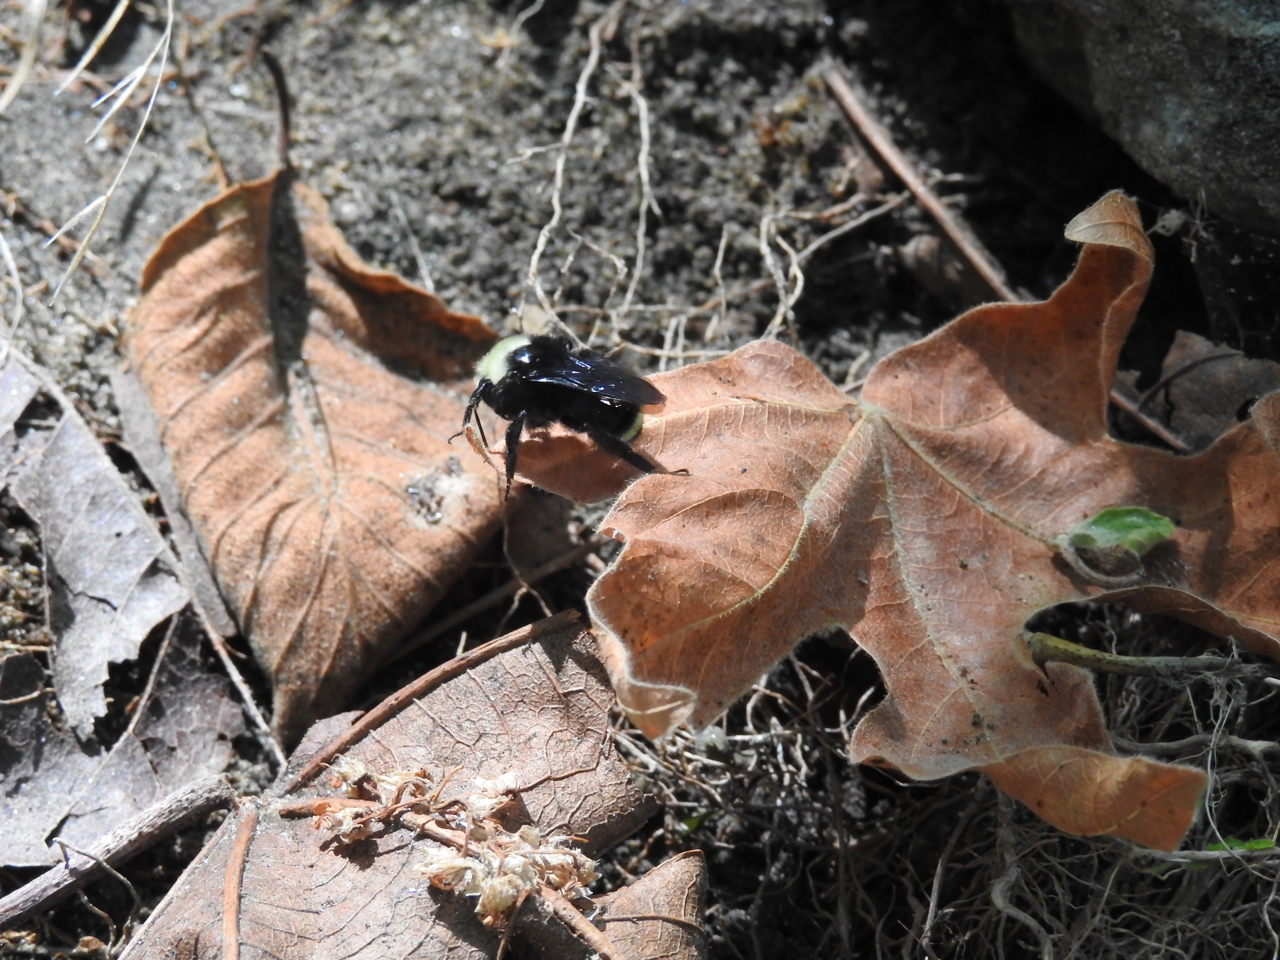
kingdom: Animalia
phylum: Arthropoda
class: Insecta
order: Hymenoptera
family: Apidae
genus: Bombus
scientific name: Bombus vosnesenskii
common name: Vosnesensky bumble bee
